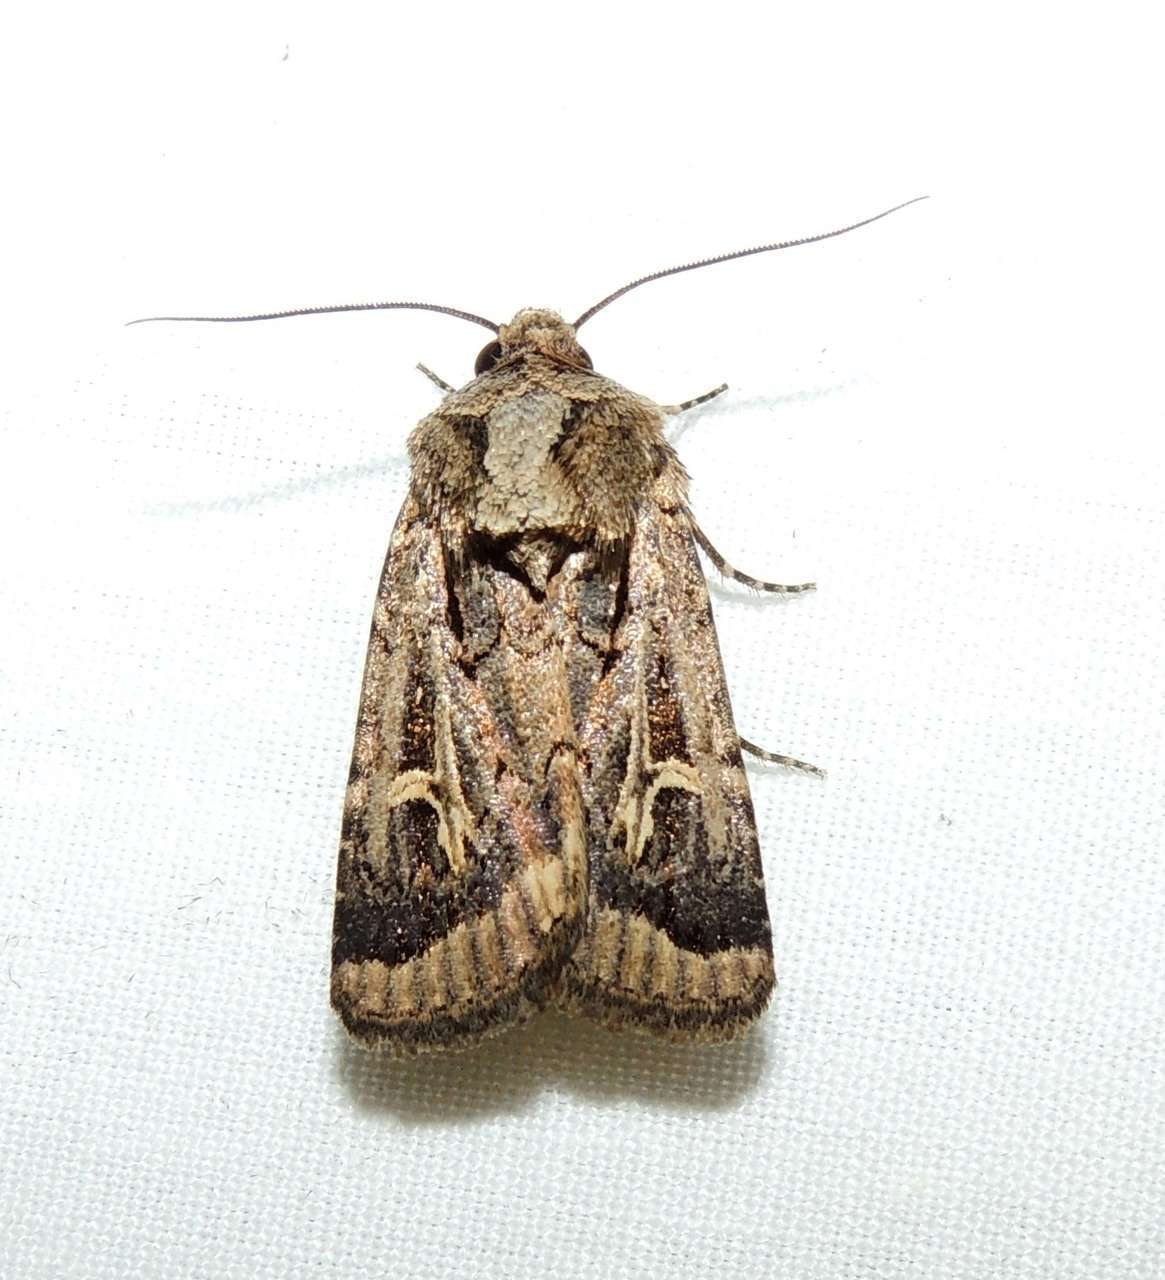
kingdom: Animalia
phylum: Arthropoda
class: Insecta
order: Lepidoptera
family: Noctuidae
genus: Proteuxoa
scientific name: Proteuxoa nuna
